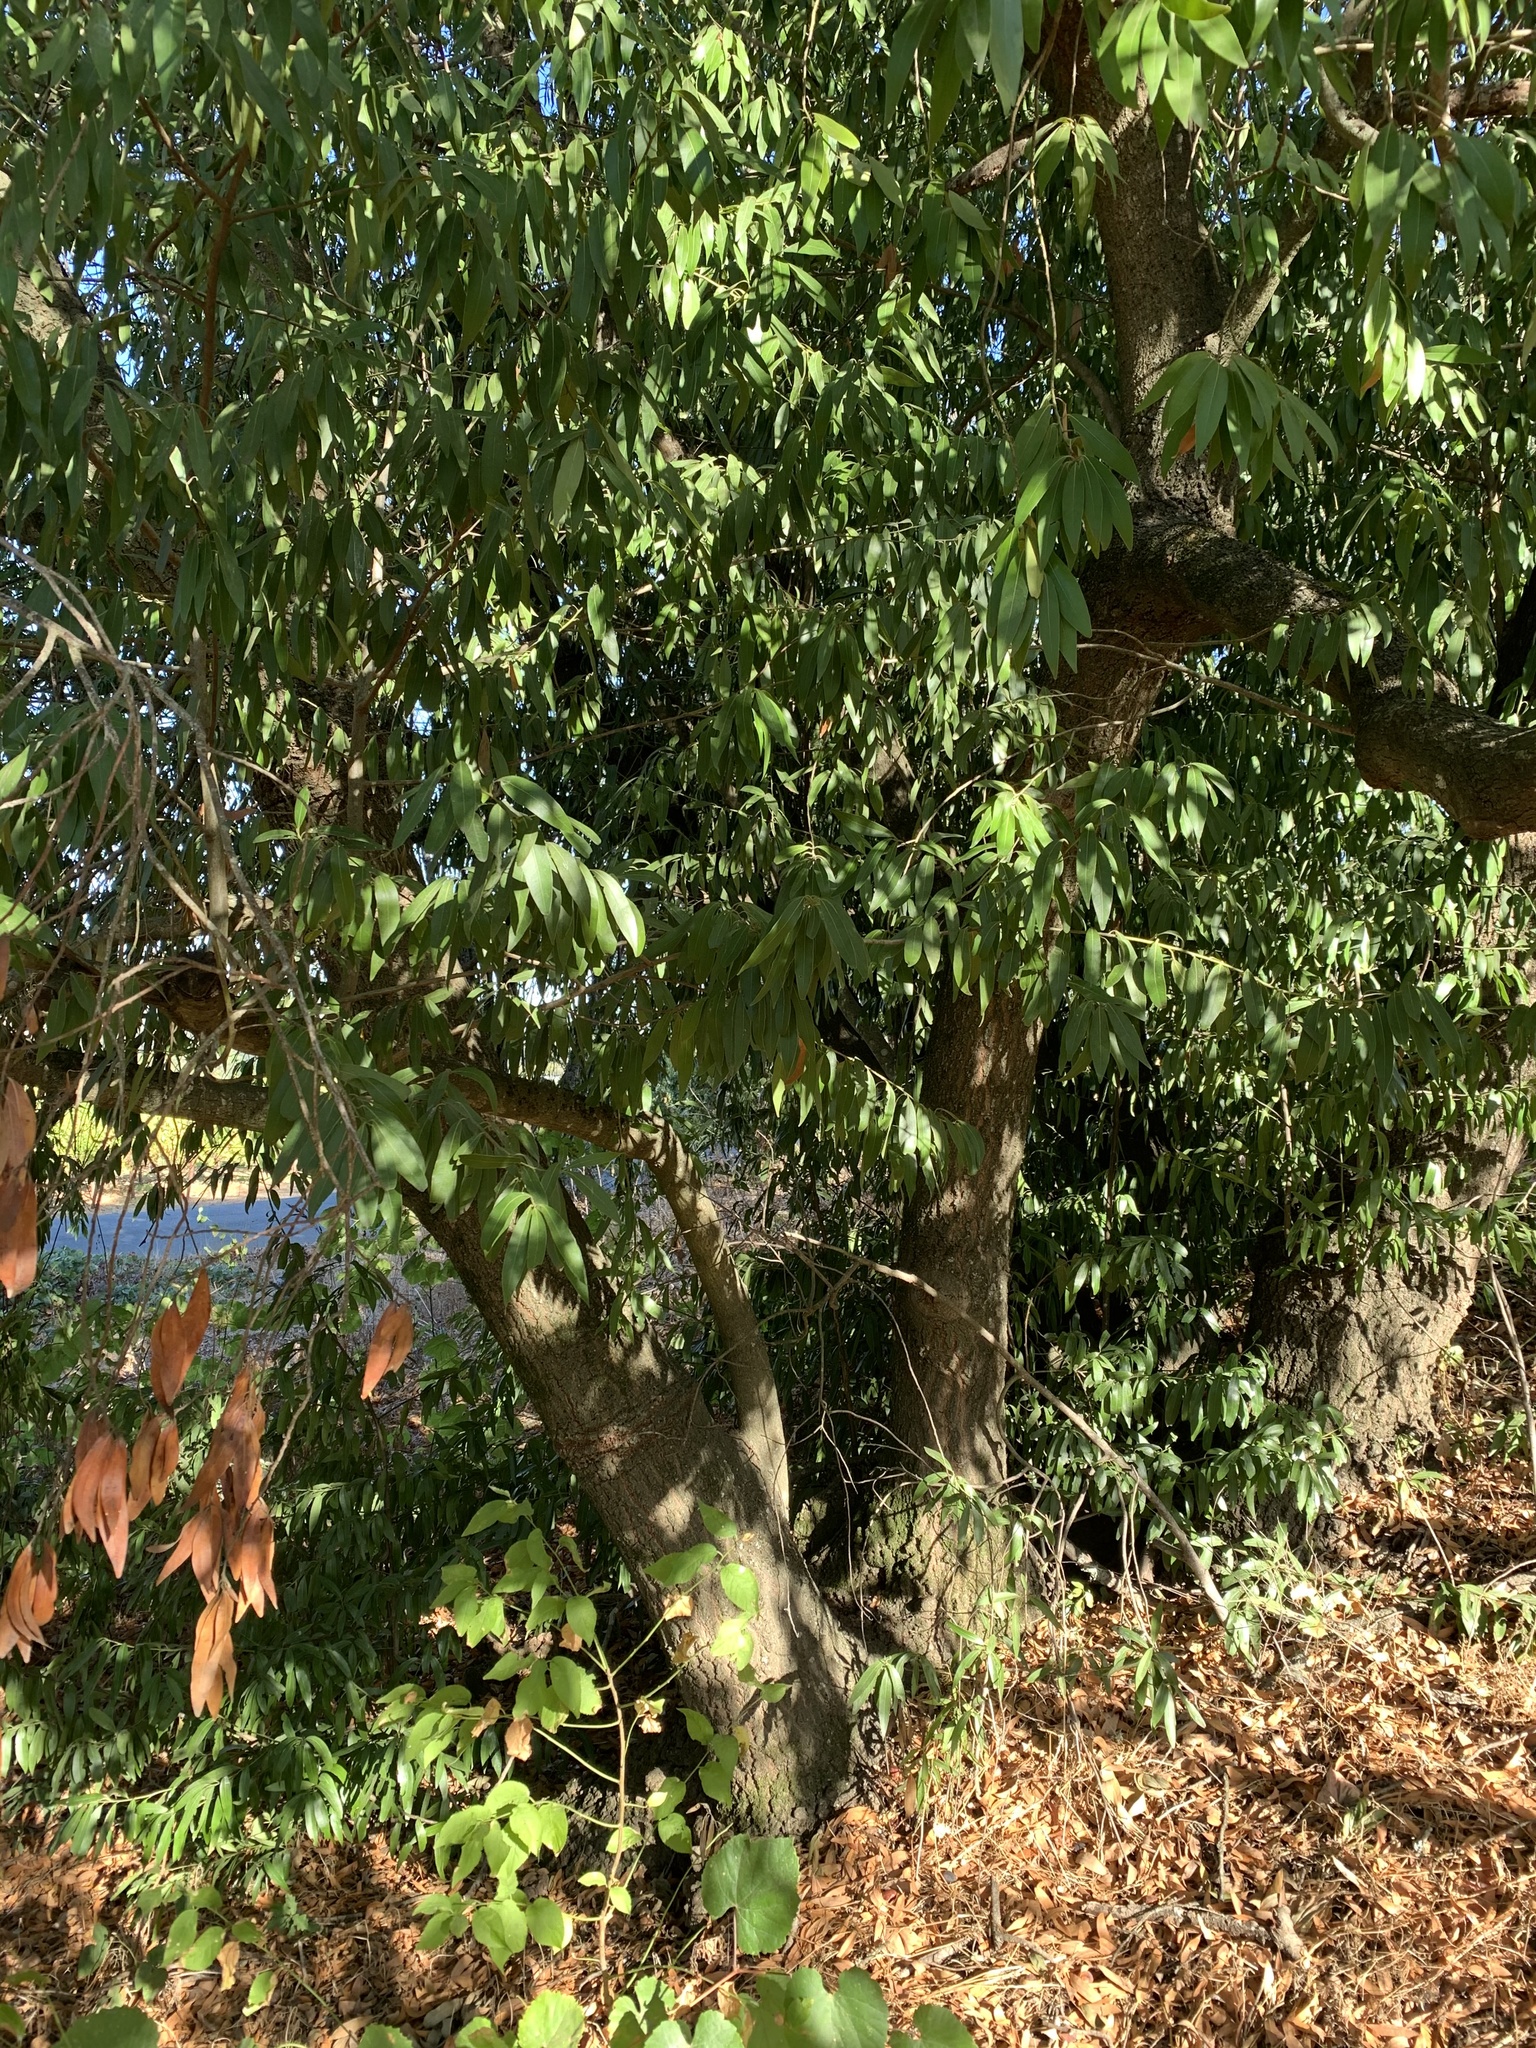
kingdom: Plantae
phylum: Tracheophyta
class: Magnoliopsida
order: Laurales
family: Lauraceae
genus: Umbellularia
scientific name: Umbellularia californica
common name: California bay
